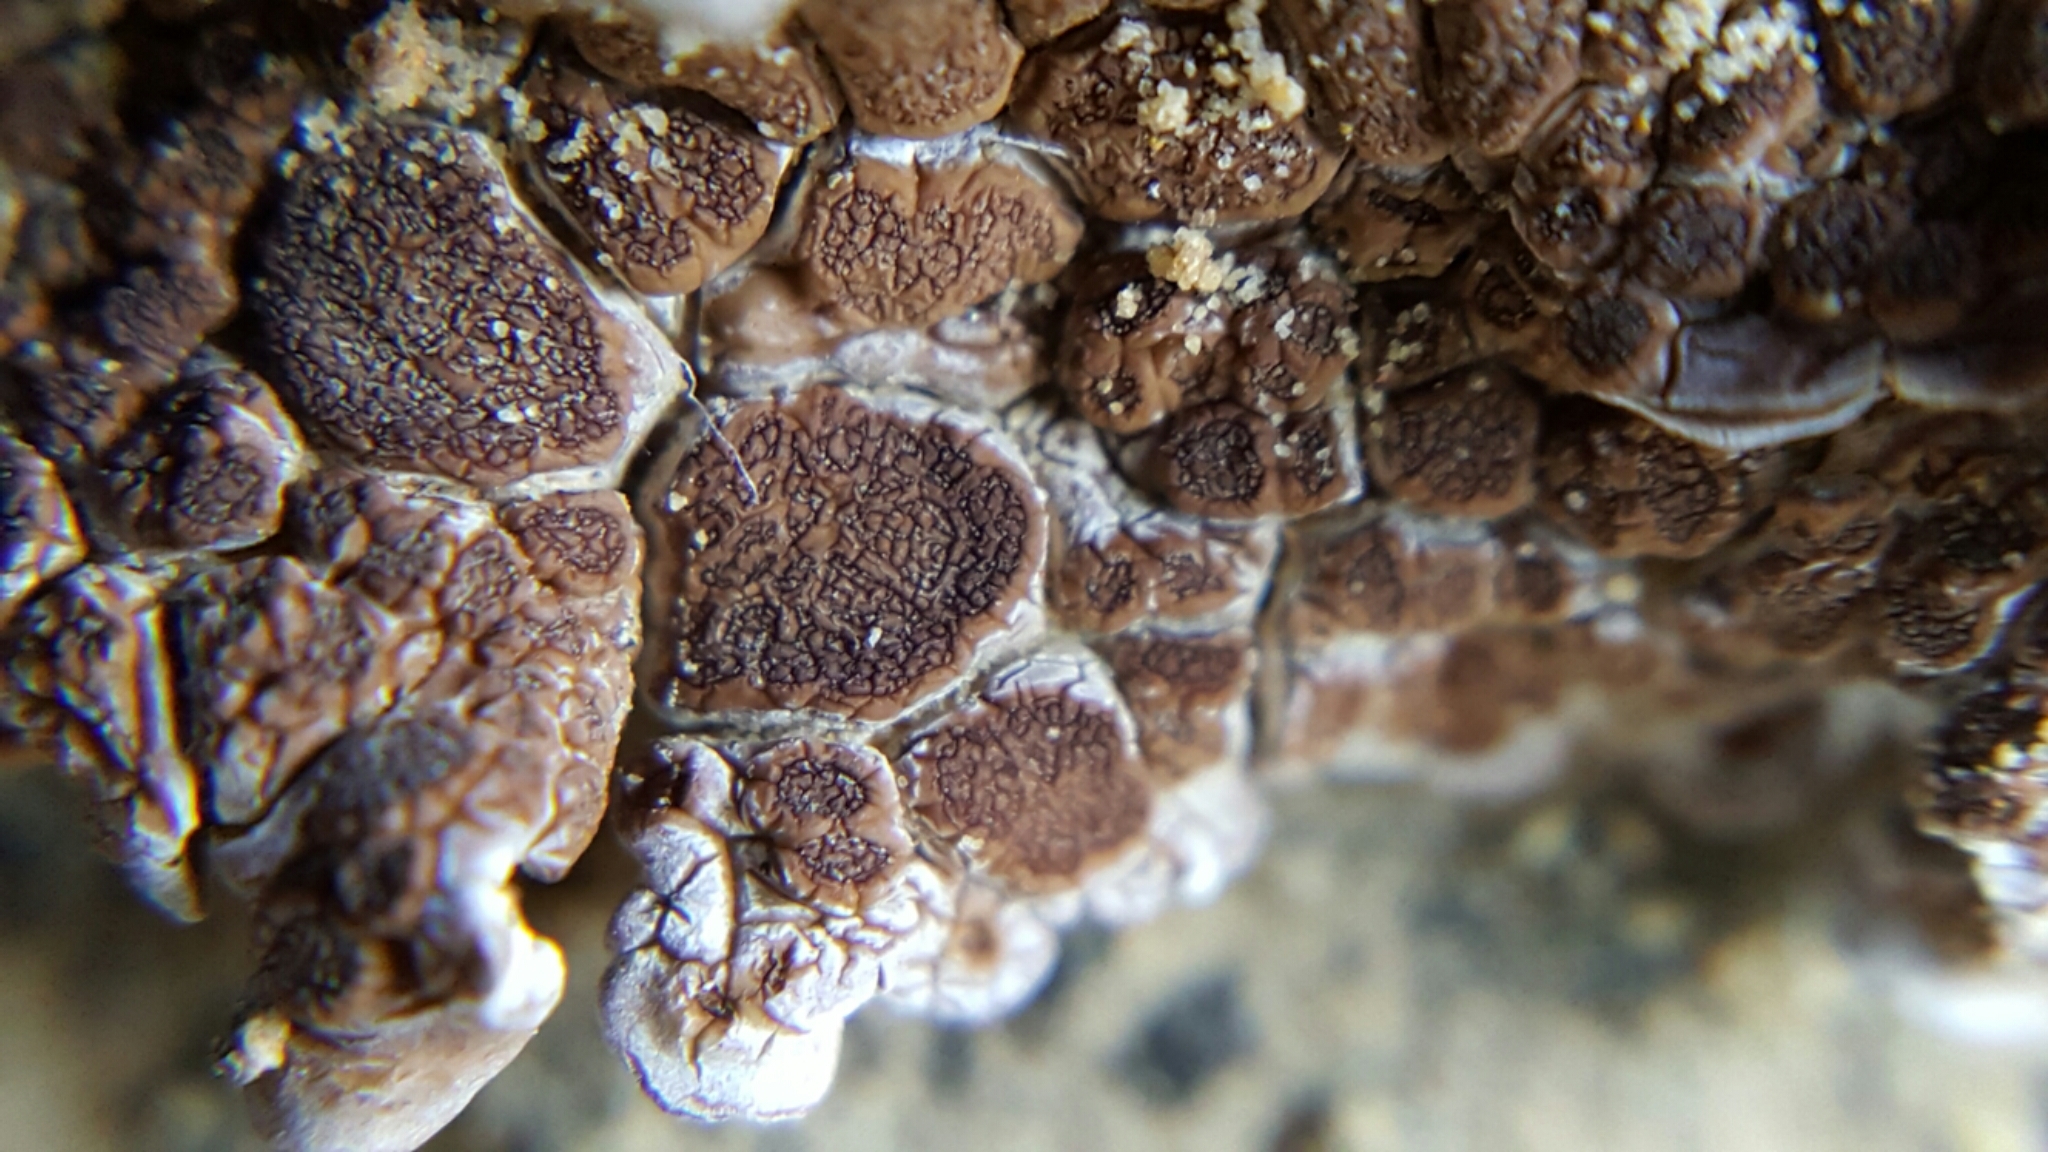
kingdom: Fungi
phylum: Ascomycota
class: Lecanoromycetes
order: Acarosporales
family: Acarosporaceae
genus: Glypholecia
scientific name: Glypholecia scabra
